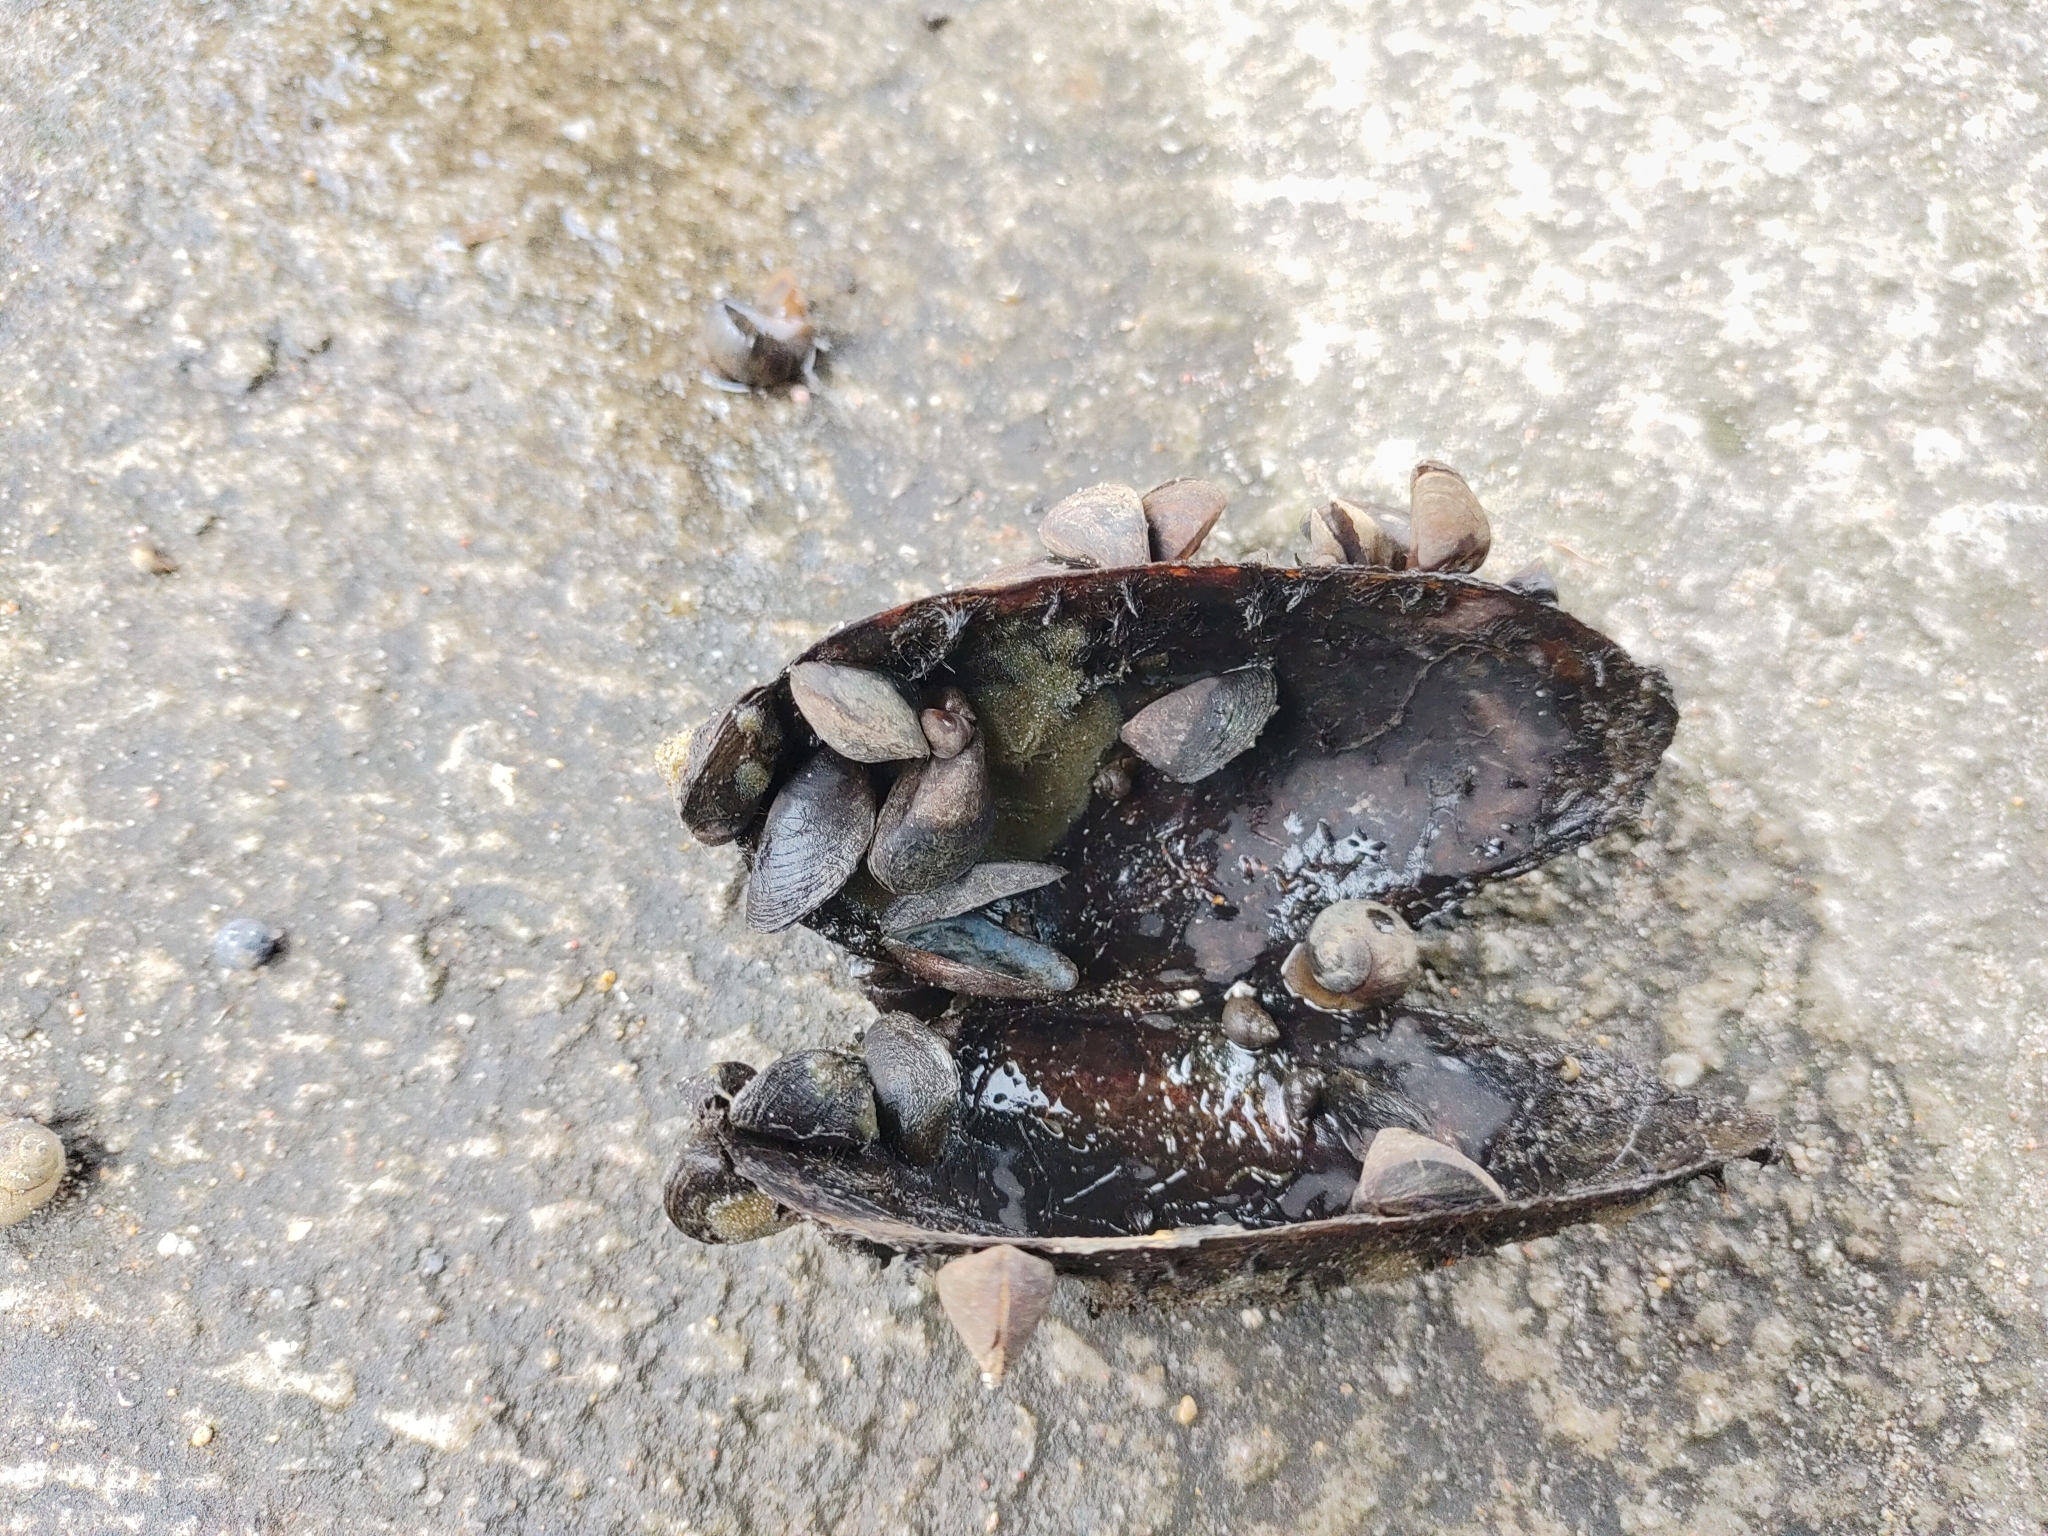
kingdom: Animalia
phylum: Mollusca
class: Bivalvia
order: Myida
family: Dreissenidae
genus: Dreissena
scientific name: Dreissena polymorpha
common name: Zebra mussel
